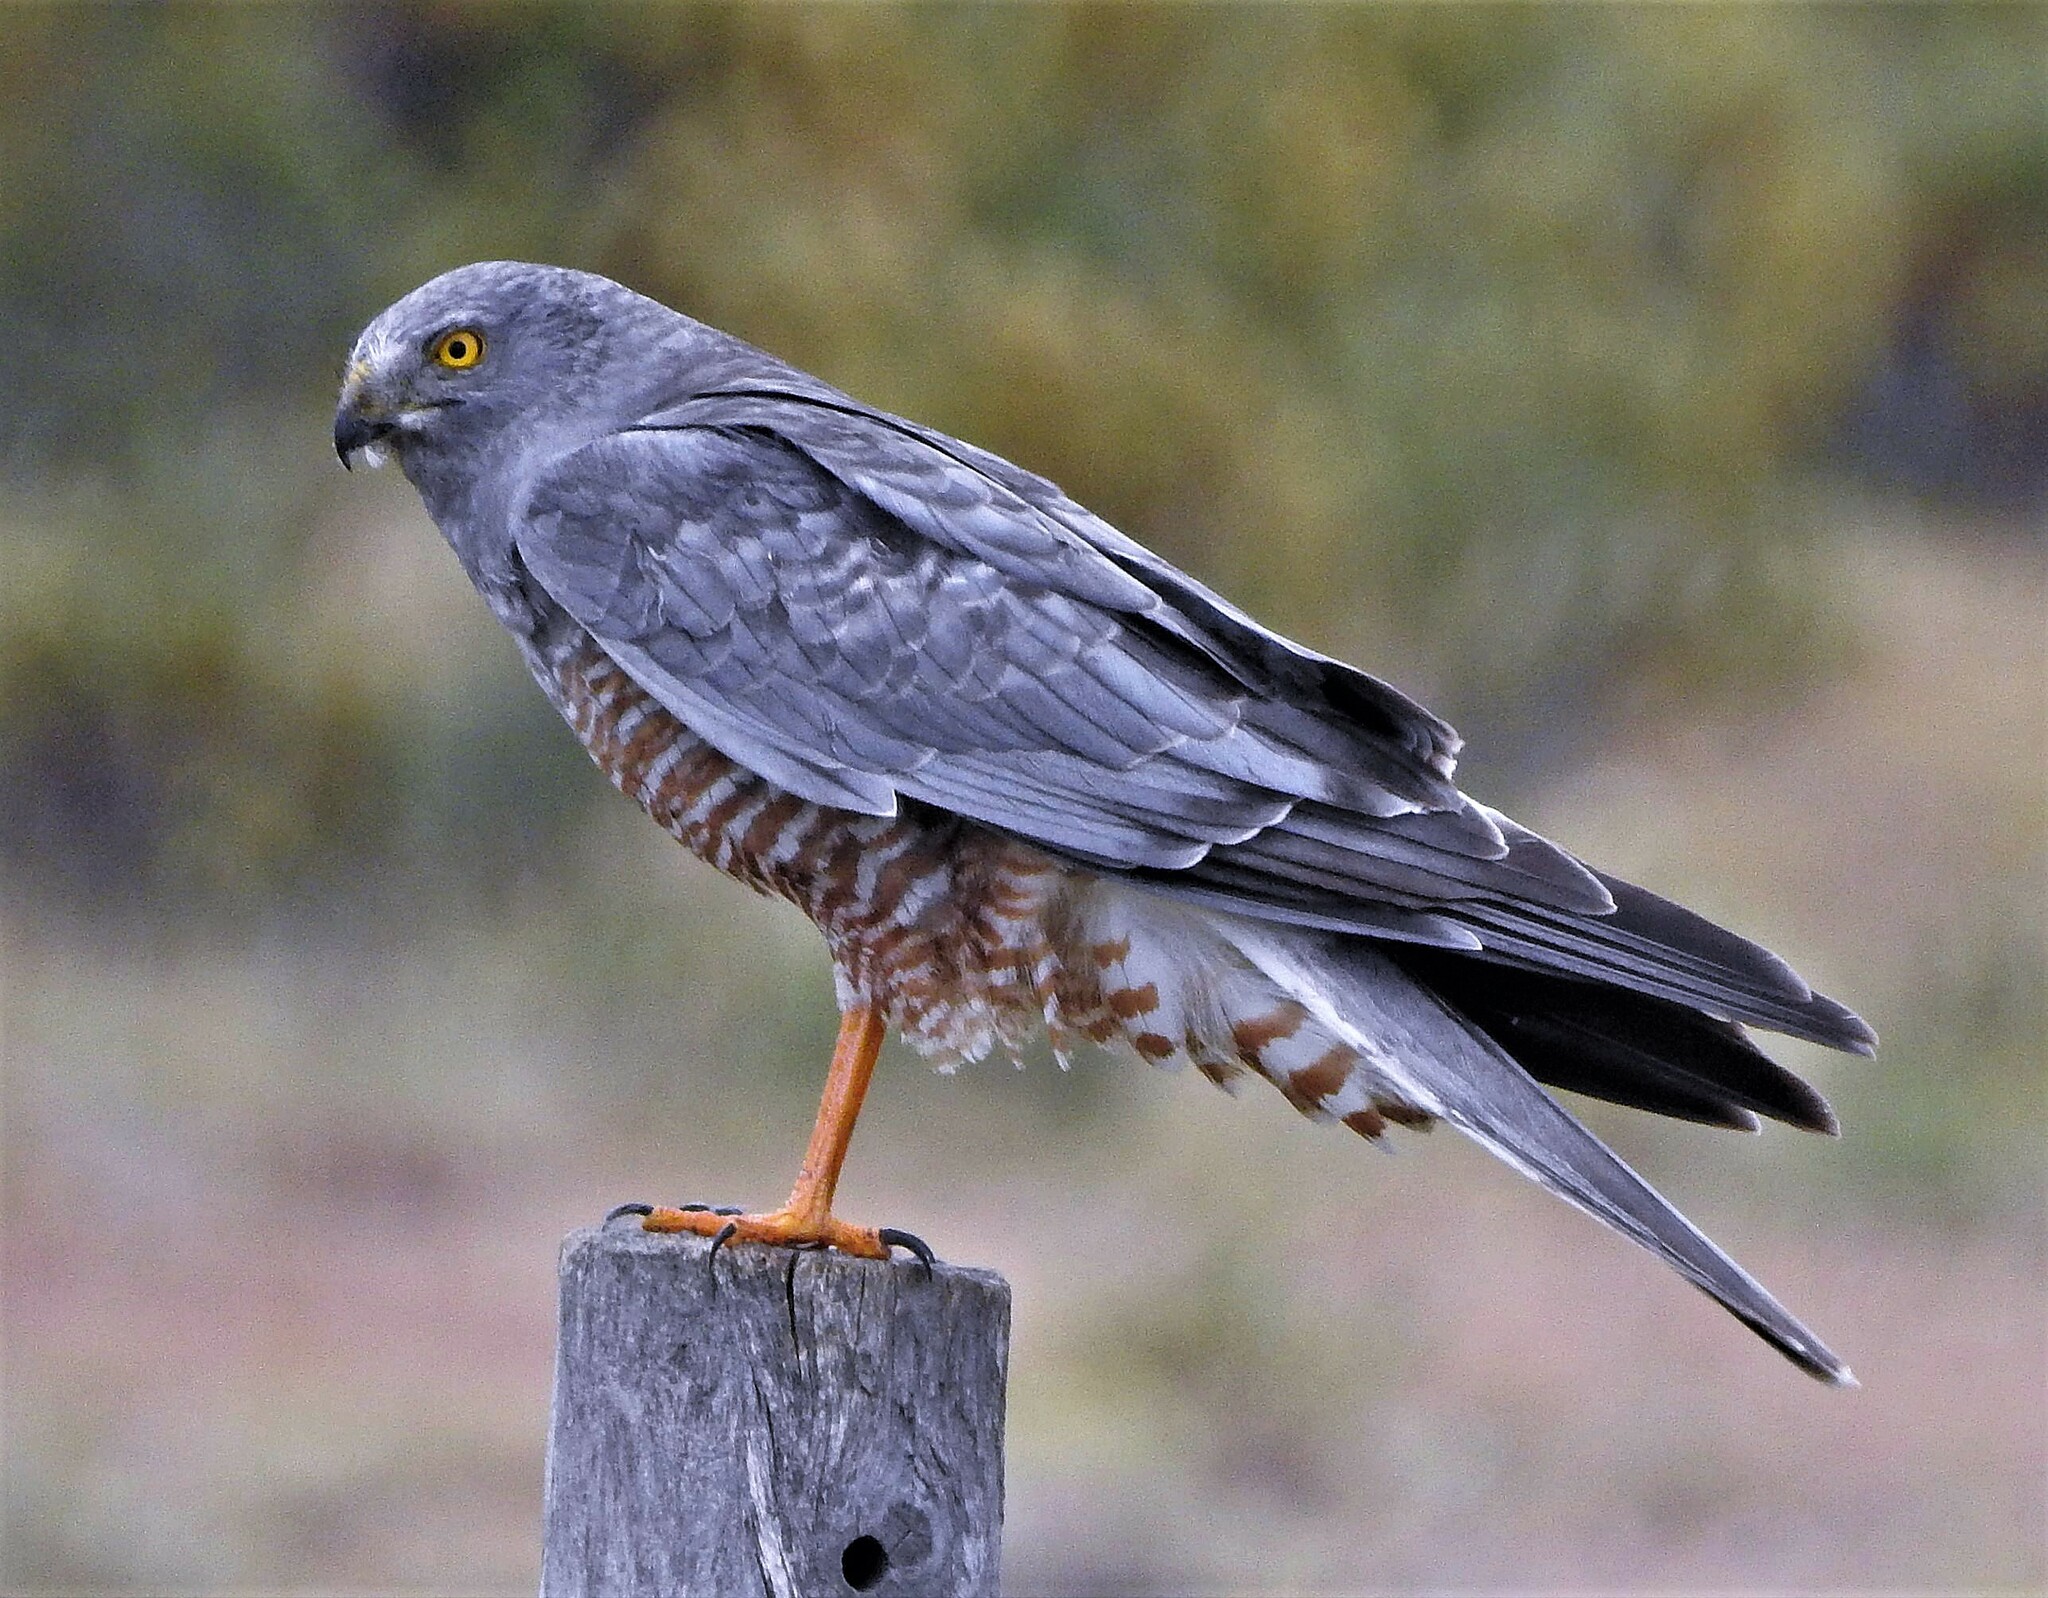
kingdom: Animalia
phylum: Chordata
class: Aves
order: Accipitriformes
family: Accipitridae
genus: Circus
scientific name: Circus cinereus
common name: Cinereous harrier
